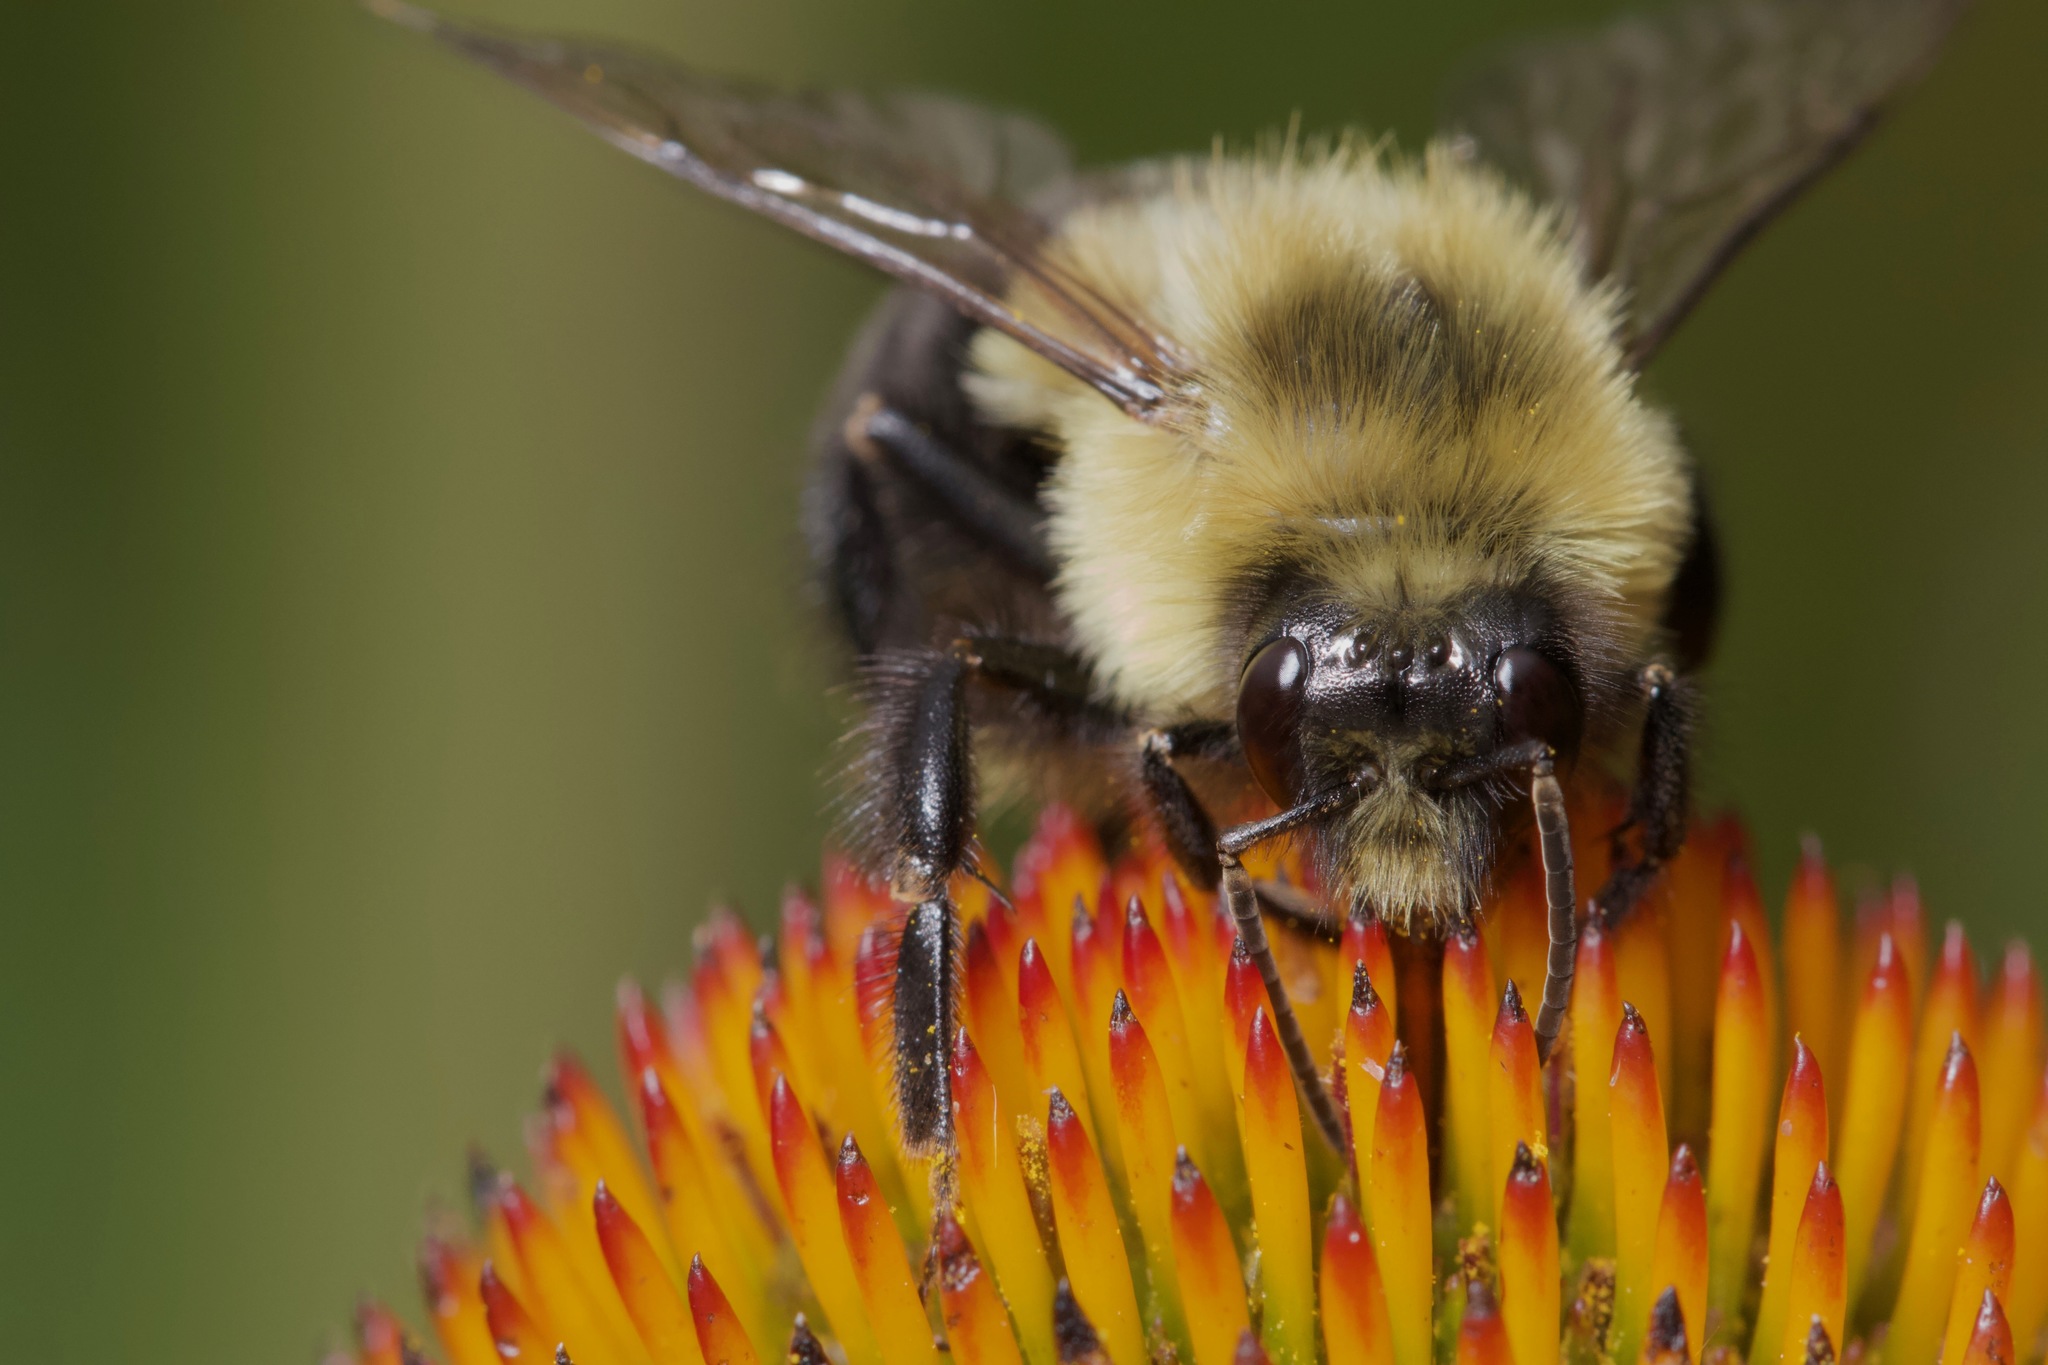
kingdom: Animalia
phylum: Arthropoda
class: Insecta
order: Hymenoptera
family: Apidae
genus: Bombus
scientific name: Bombus impatiens
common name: Common eastern bumble bee
